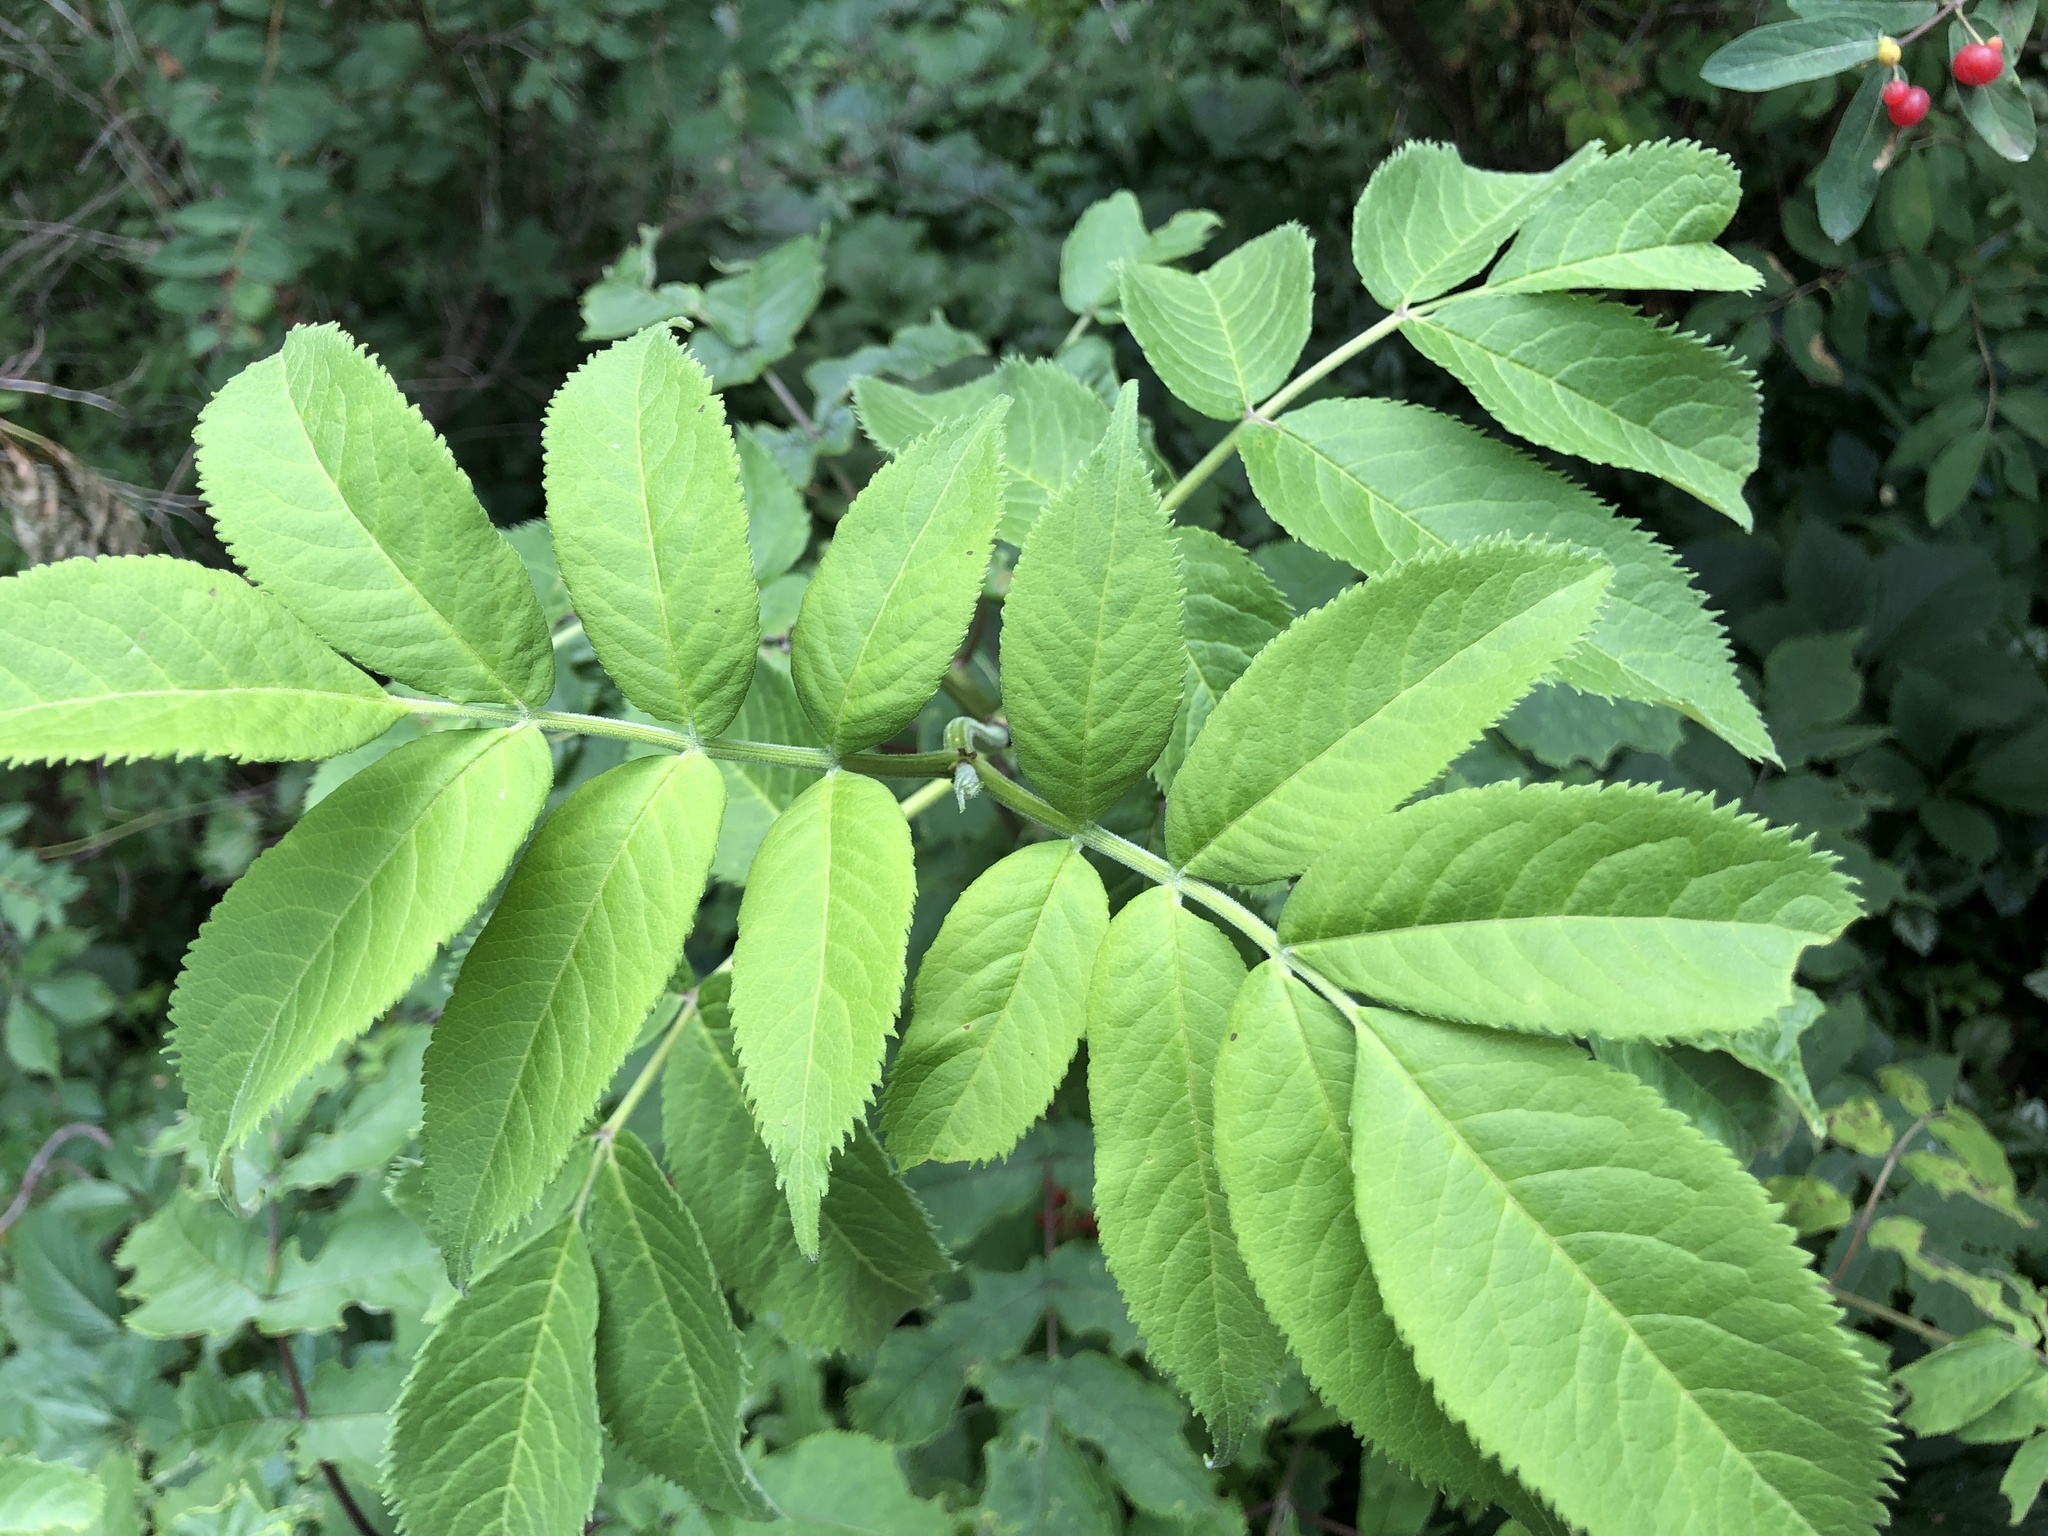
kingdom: Plantae
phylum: Tracheophyta
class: Magnoliopsida
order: Dipsacales
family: Viburnaceae
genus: Sambucus
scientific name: Sambucus racemosa
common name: Red-berried elder
